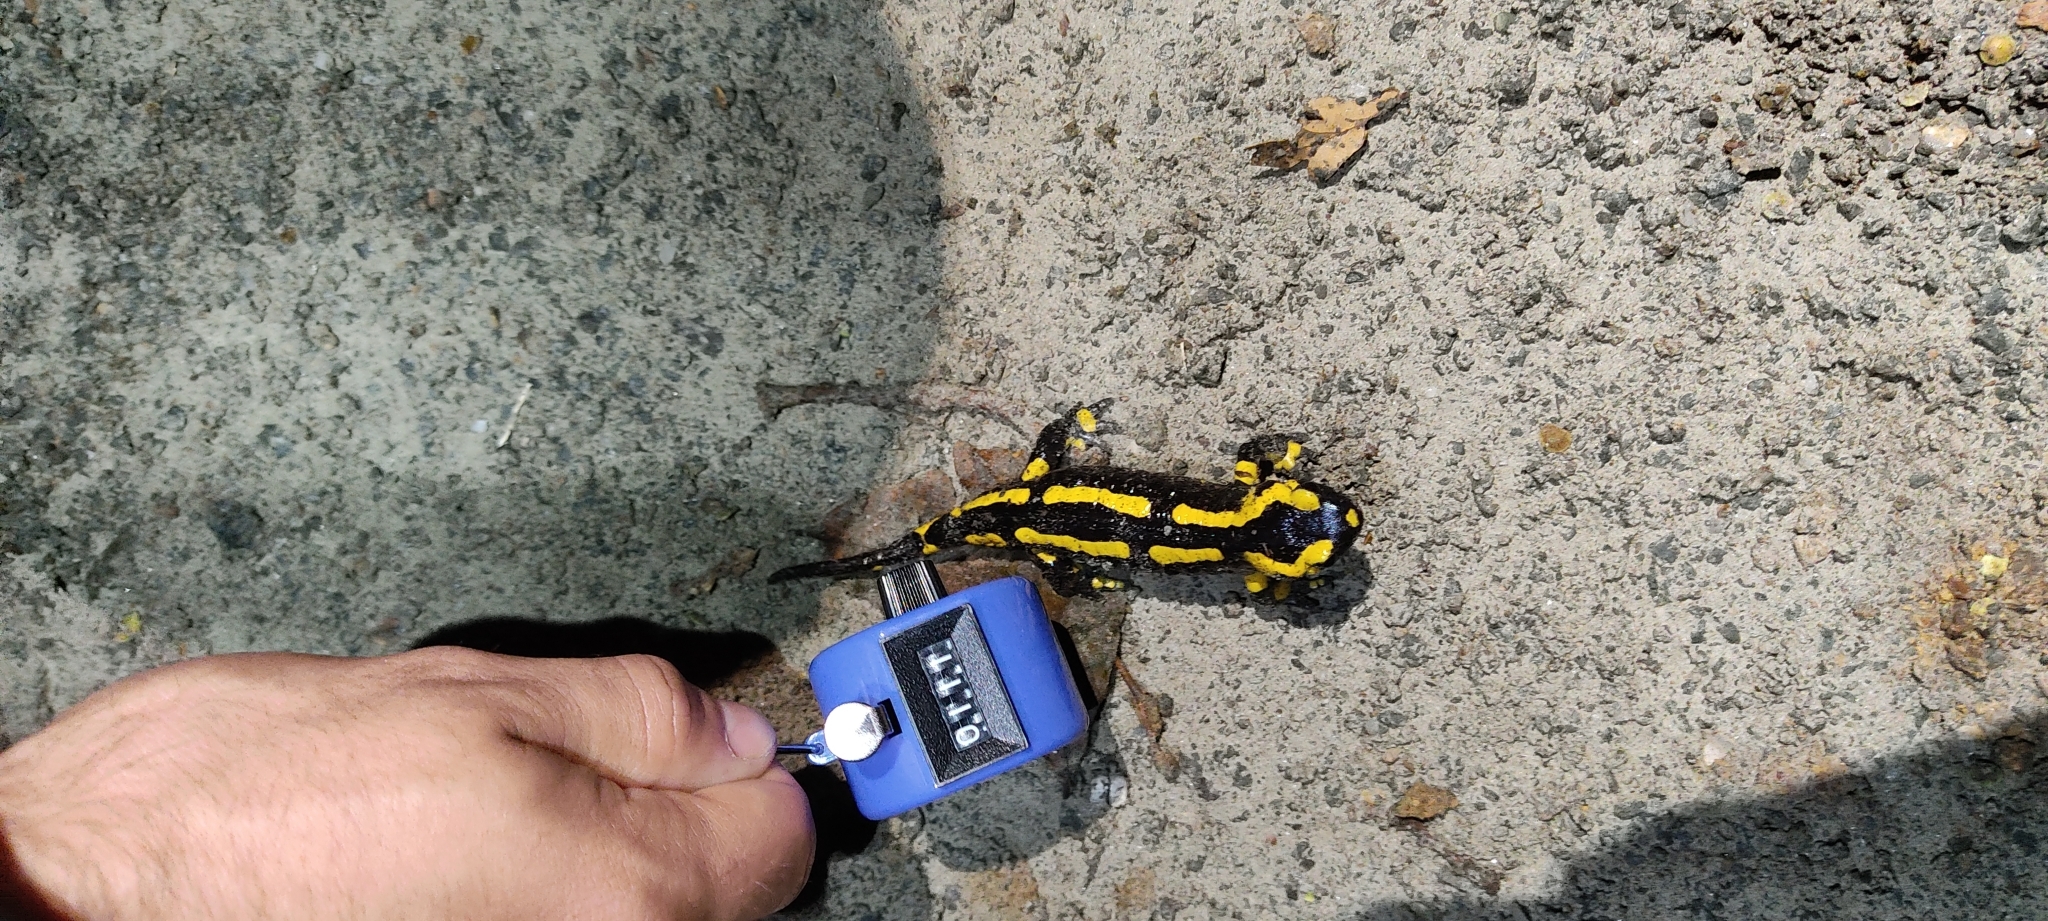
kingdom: Animalia
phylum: Chordata
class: Amphibia
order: Caudata
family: Salamandridae
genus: Salamandra
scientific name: Salamandra salamandra
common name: Fire salamander
